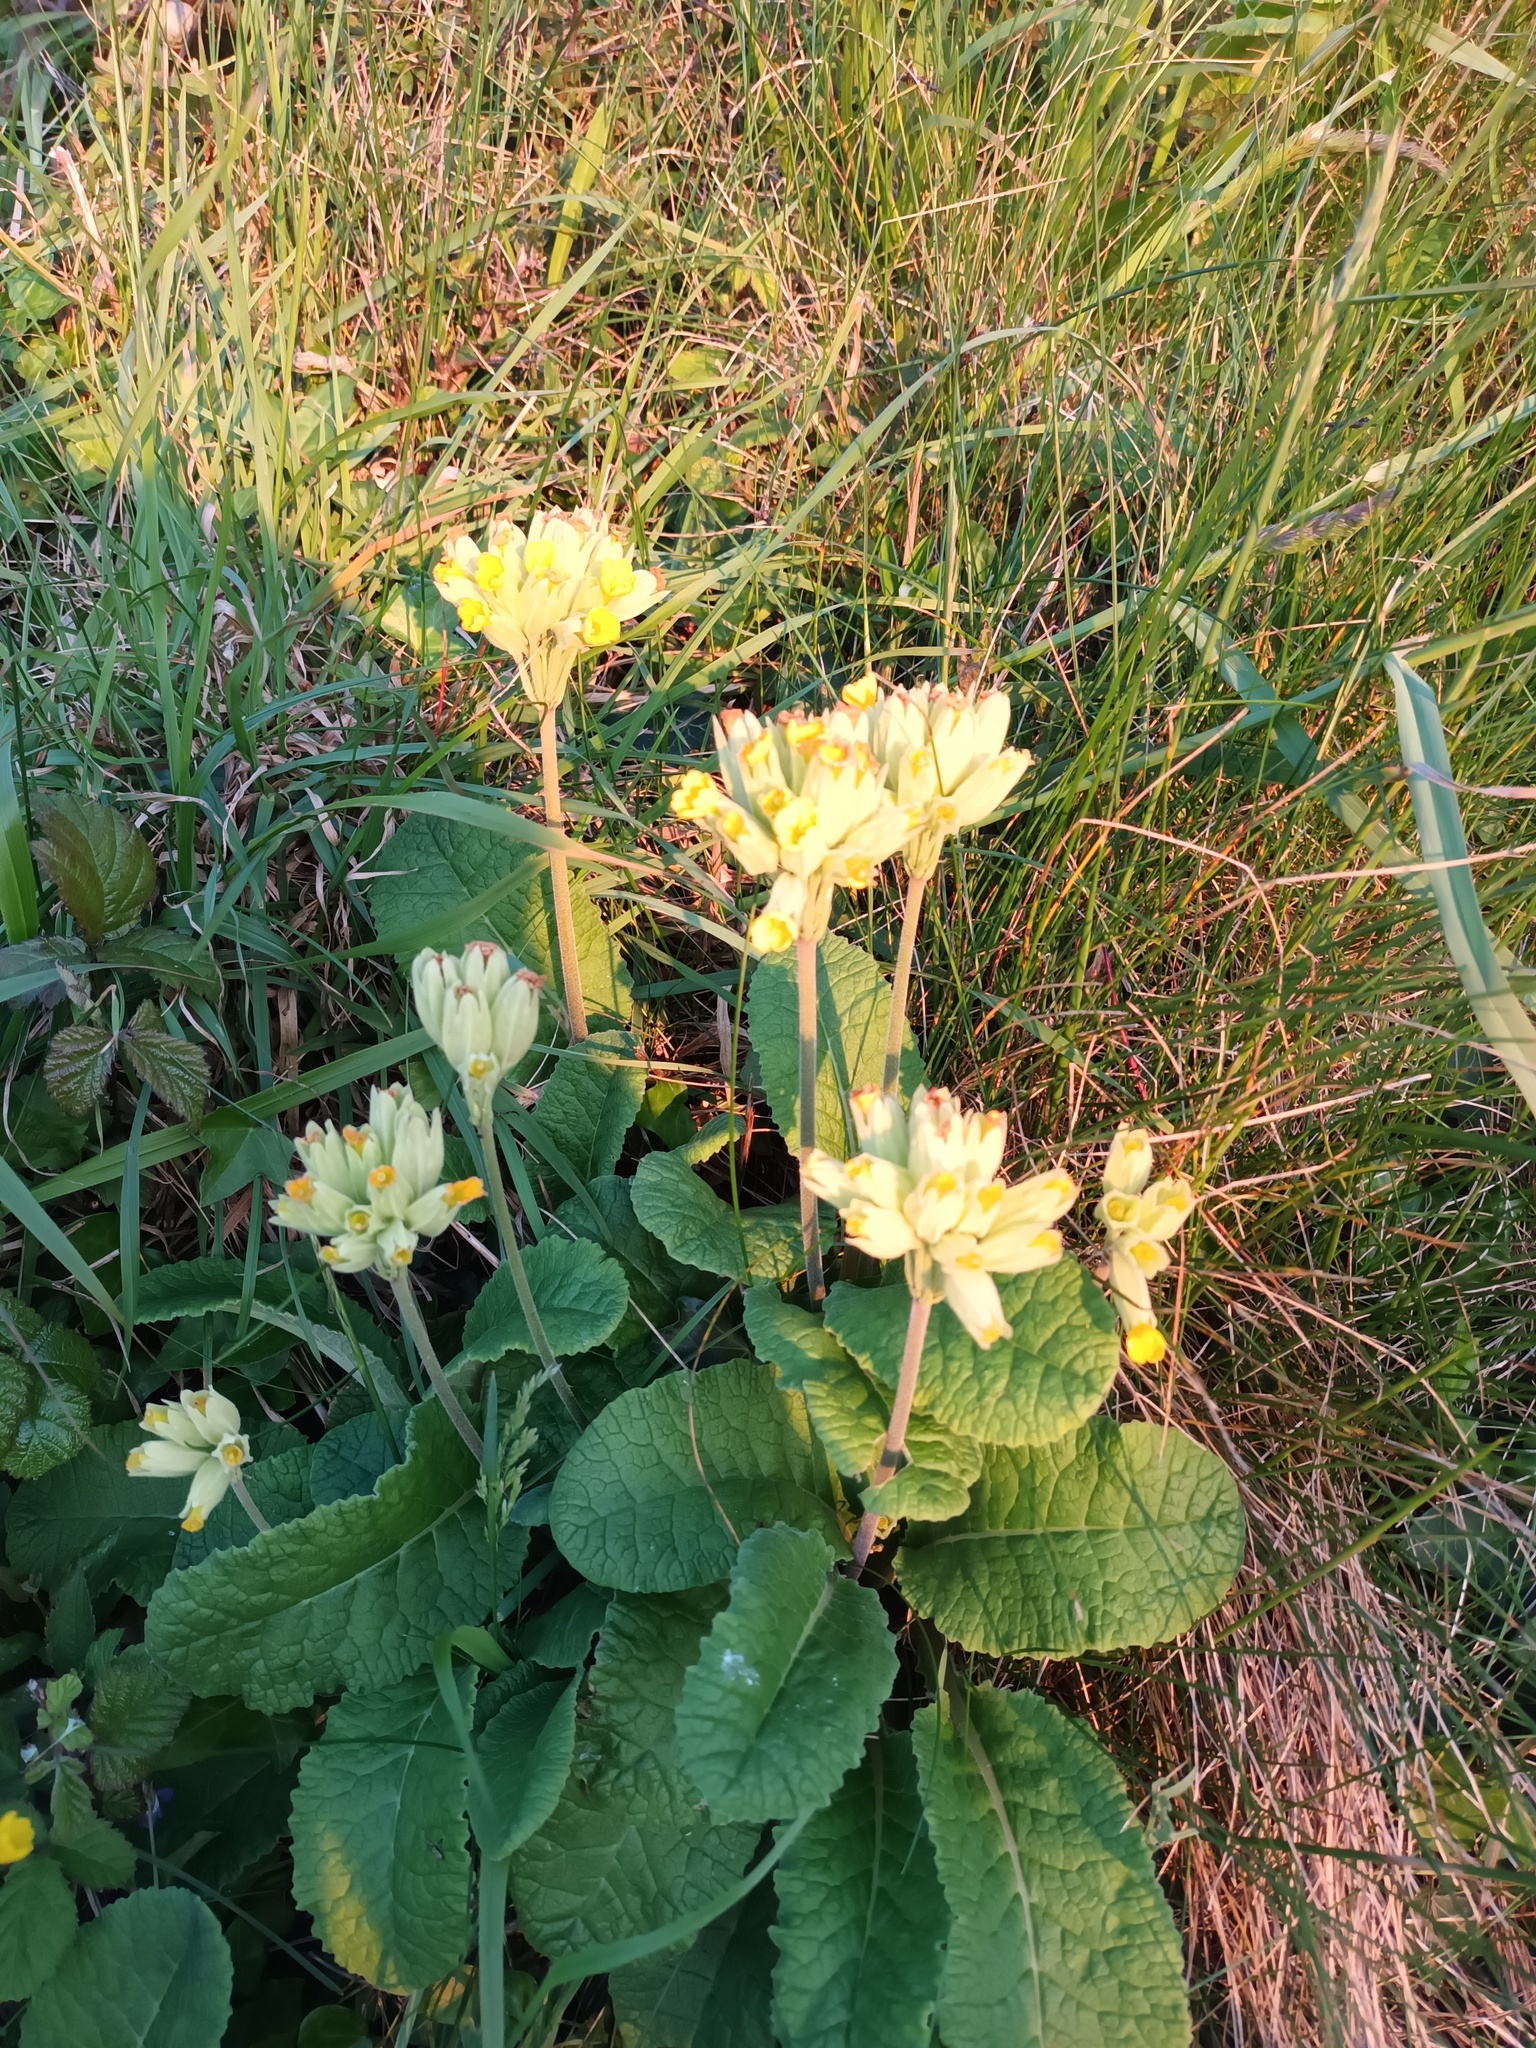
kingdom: Plantae
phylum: Tracheophyta
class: Magnoliopsida
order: Ericales
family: Primulaceae
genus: Primula
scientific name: Primula veris
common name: Cowslip
